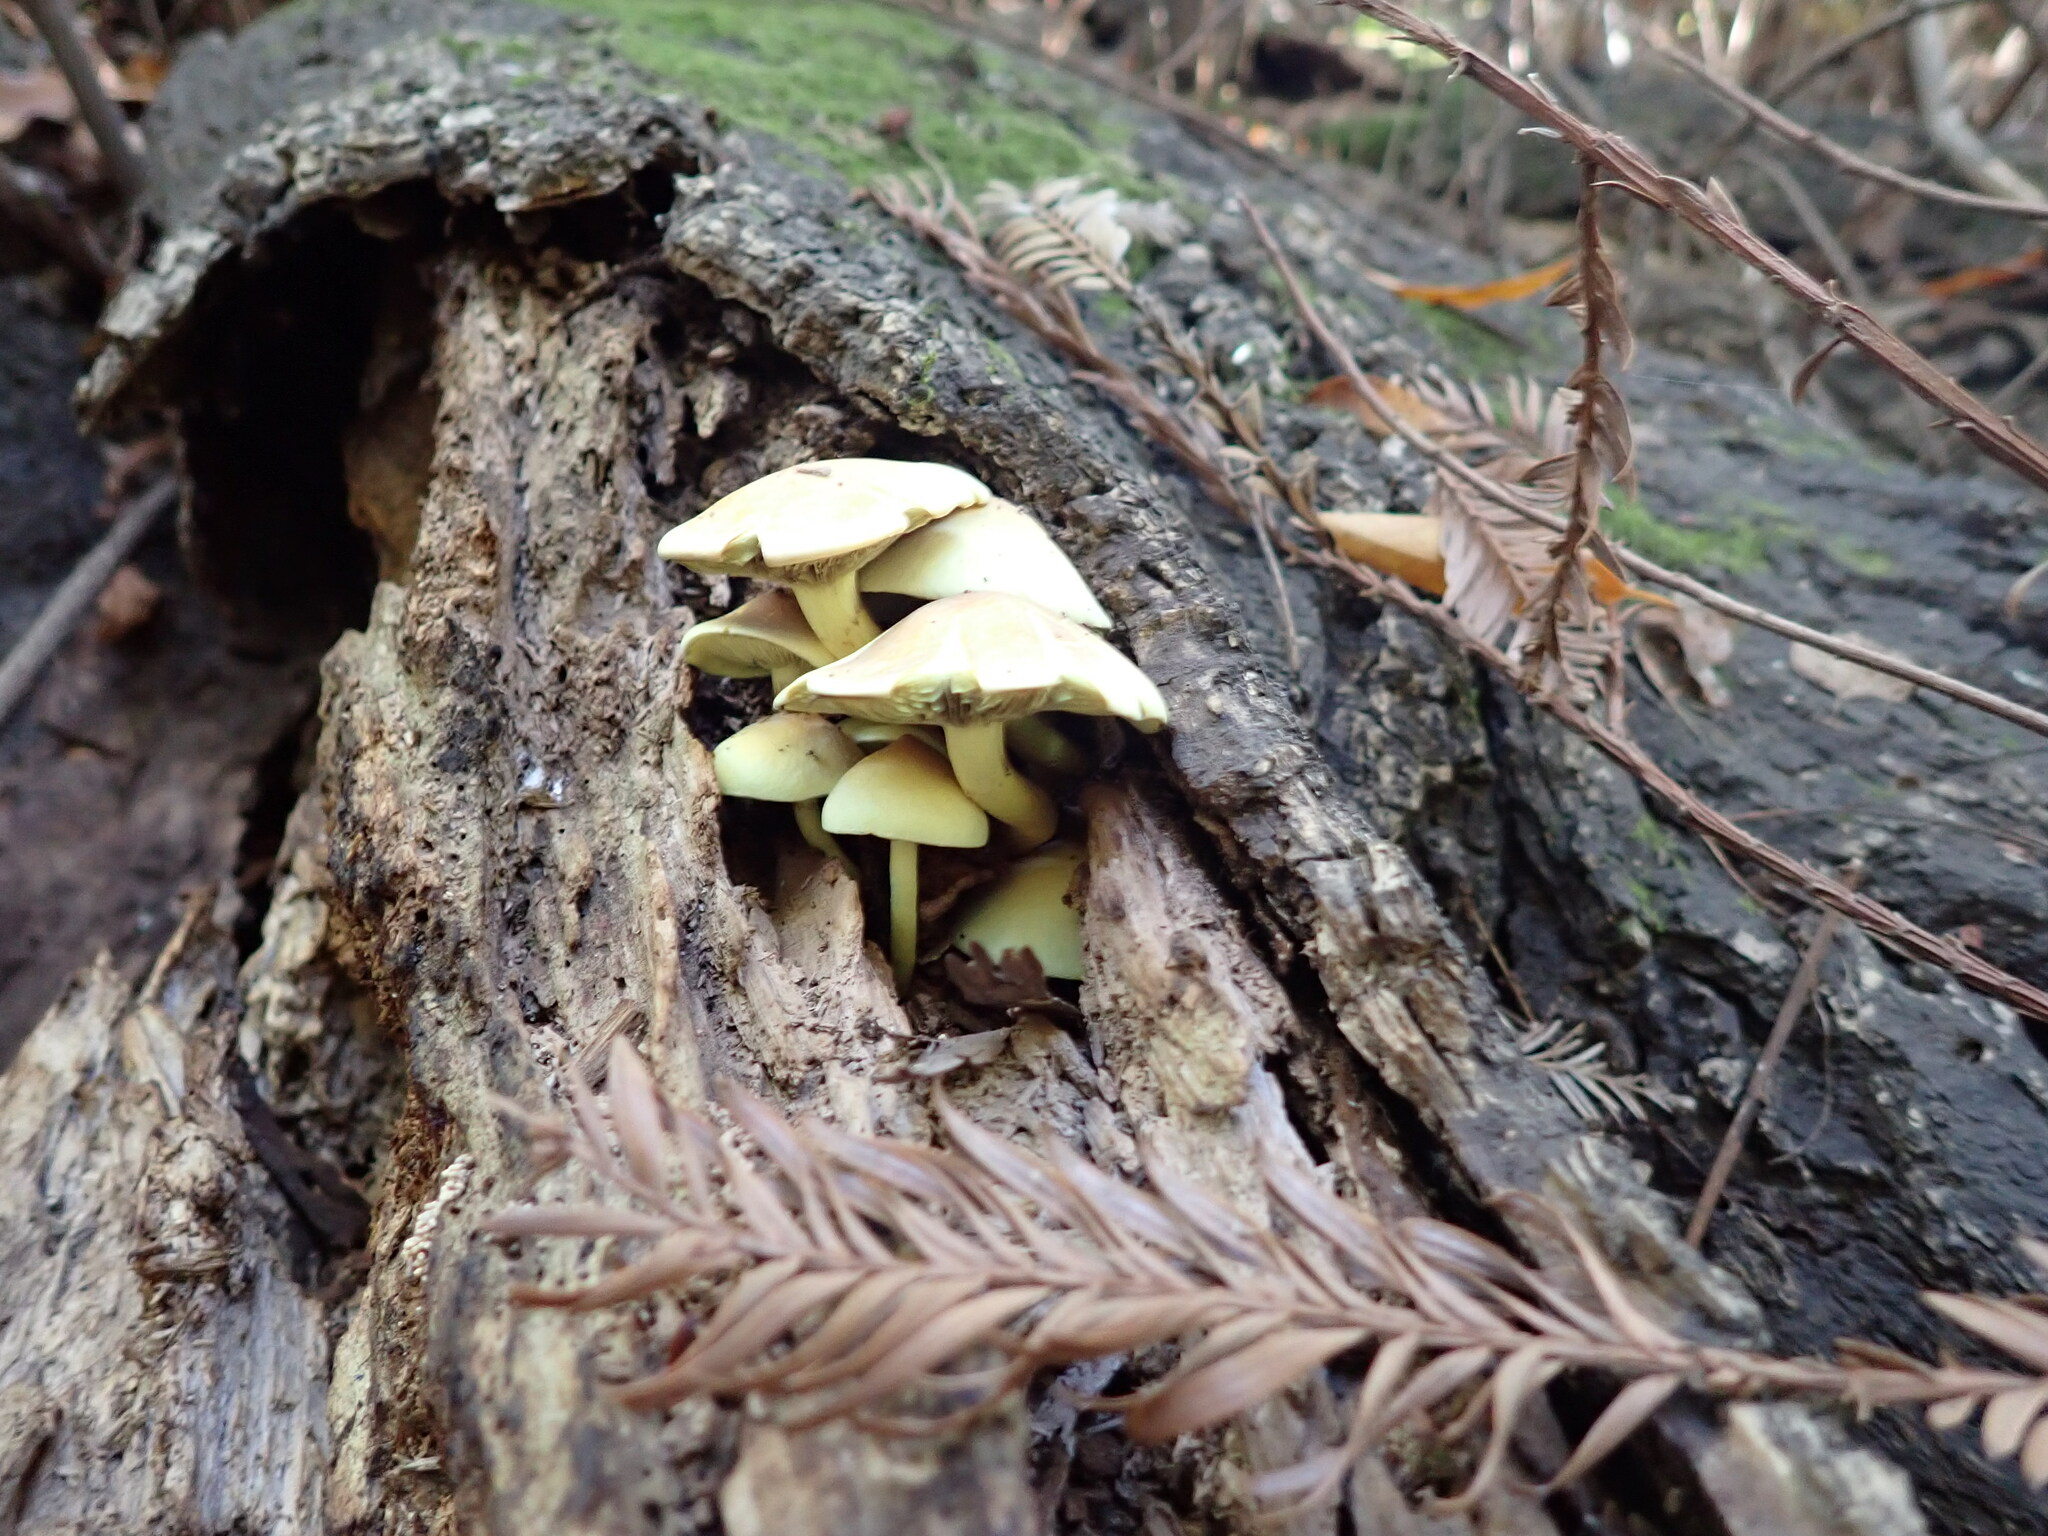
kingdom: Fungi
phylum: Basidiomycota
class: Agaricomycetes
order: Agaricales
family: Strophariaceae
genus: Hypholoma
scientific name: Hypholoma fasciculare
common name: Sulphur tuft
